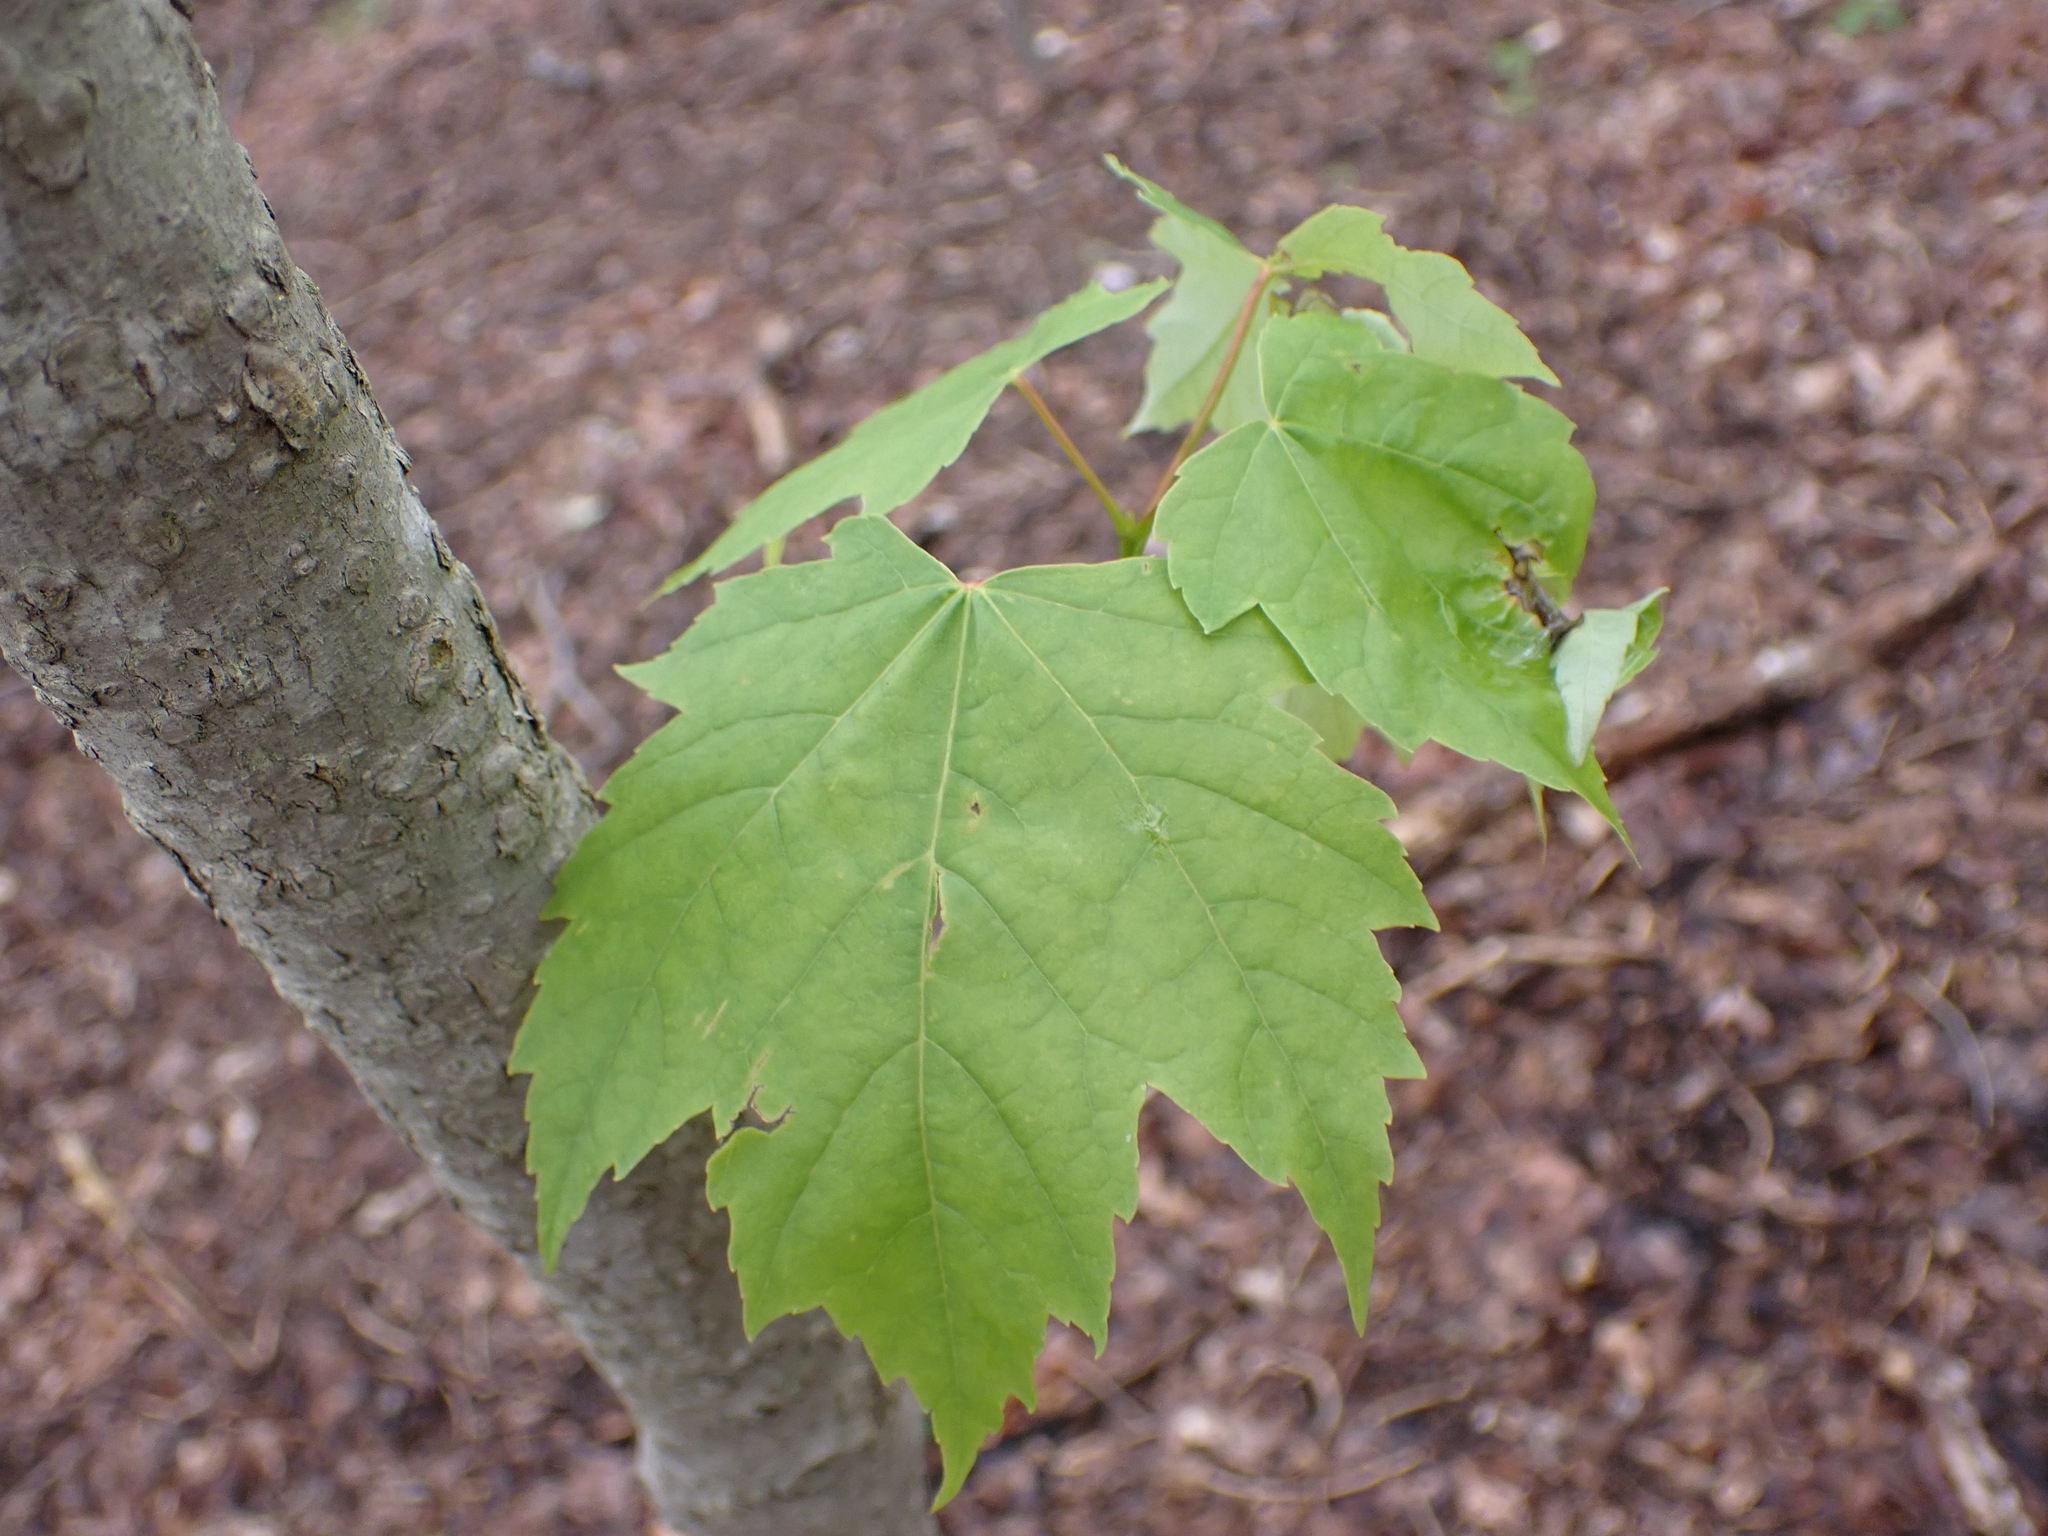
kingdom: Plantae
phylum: Tracheophyta
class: Magnoliopsida
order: Sapindales
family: Sapindaceae
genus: Acer
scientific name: Acer rubrum
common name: Red maple
